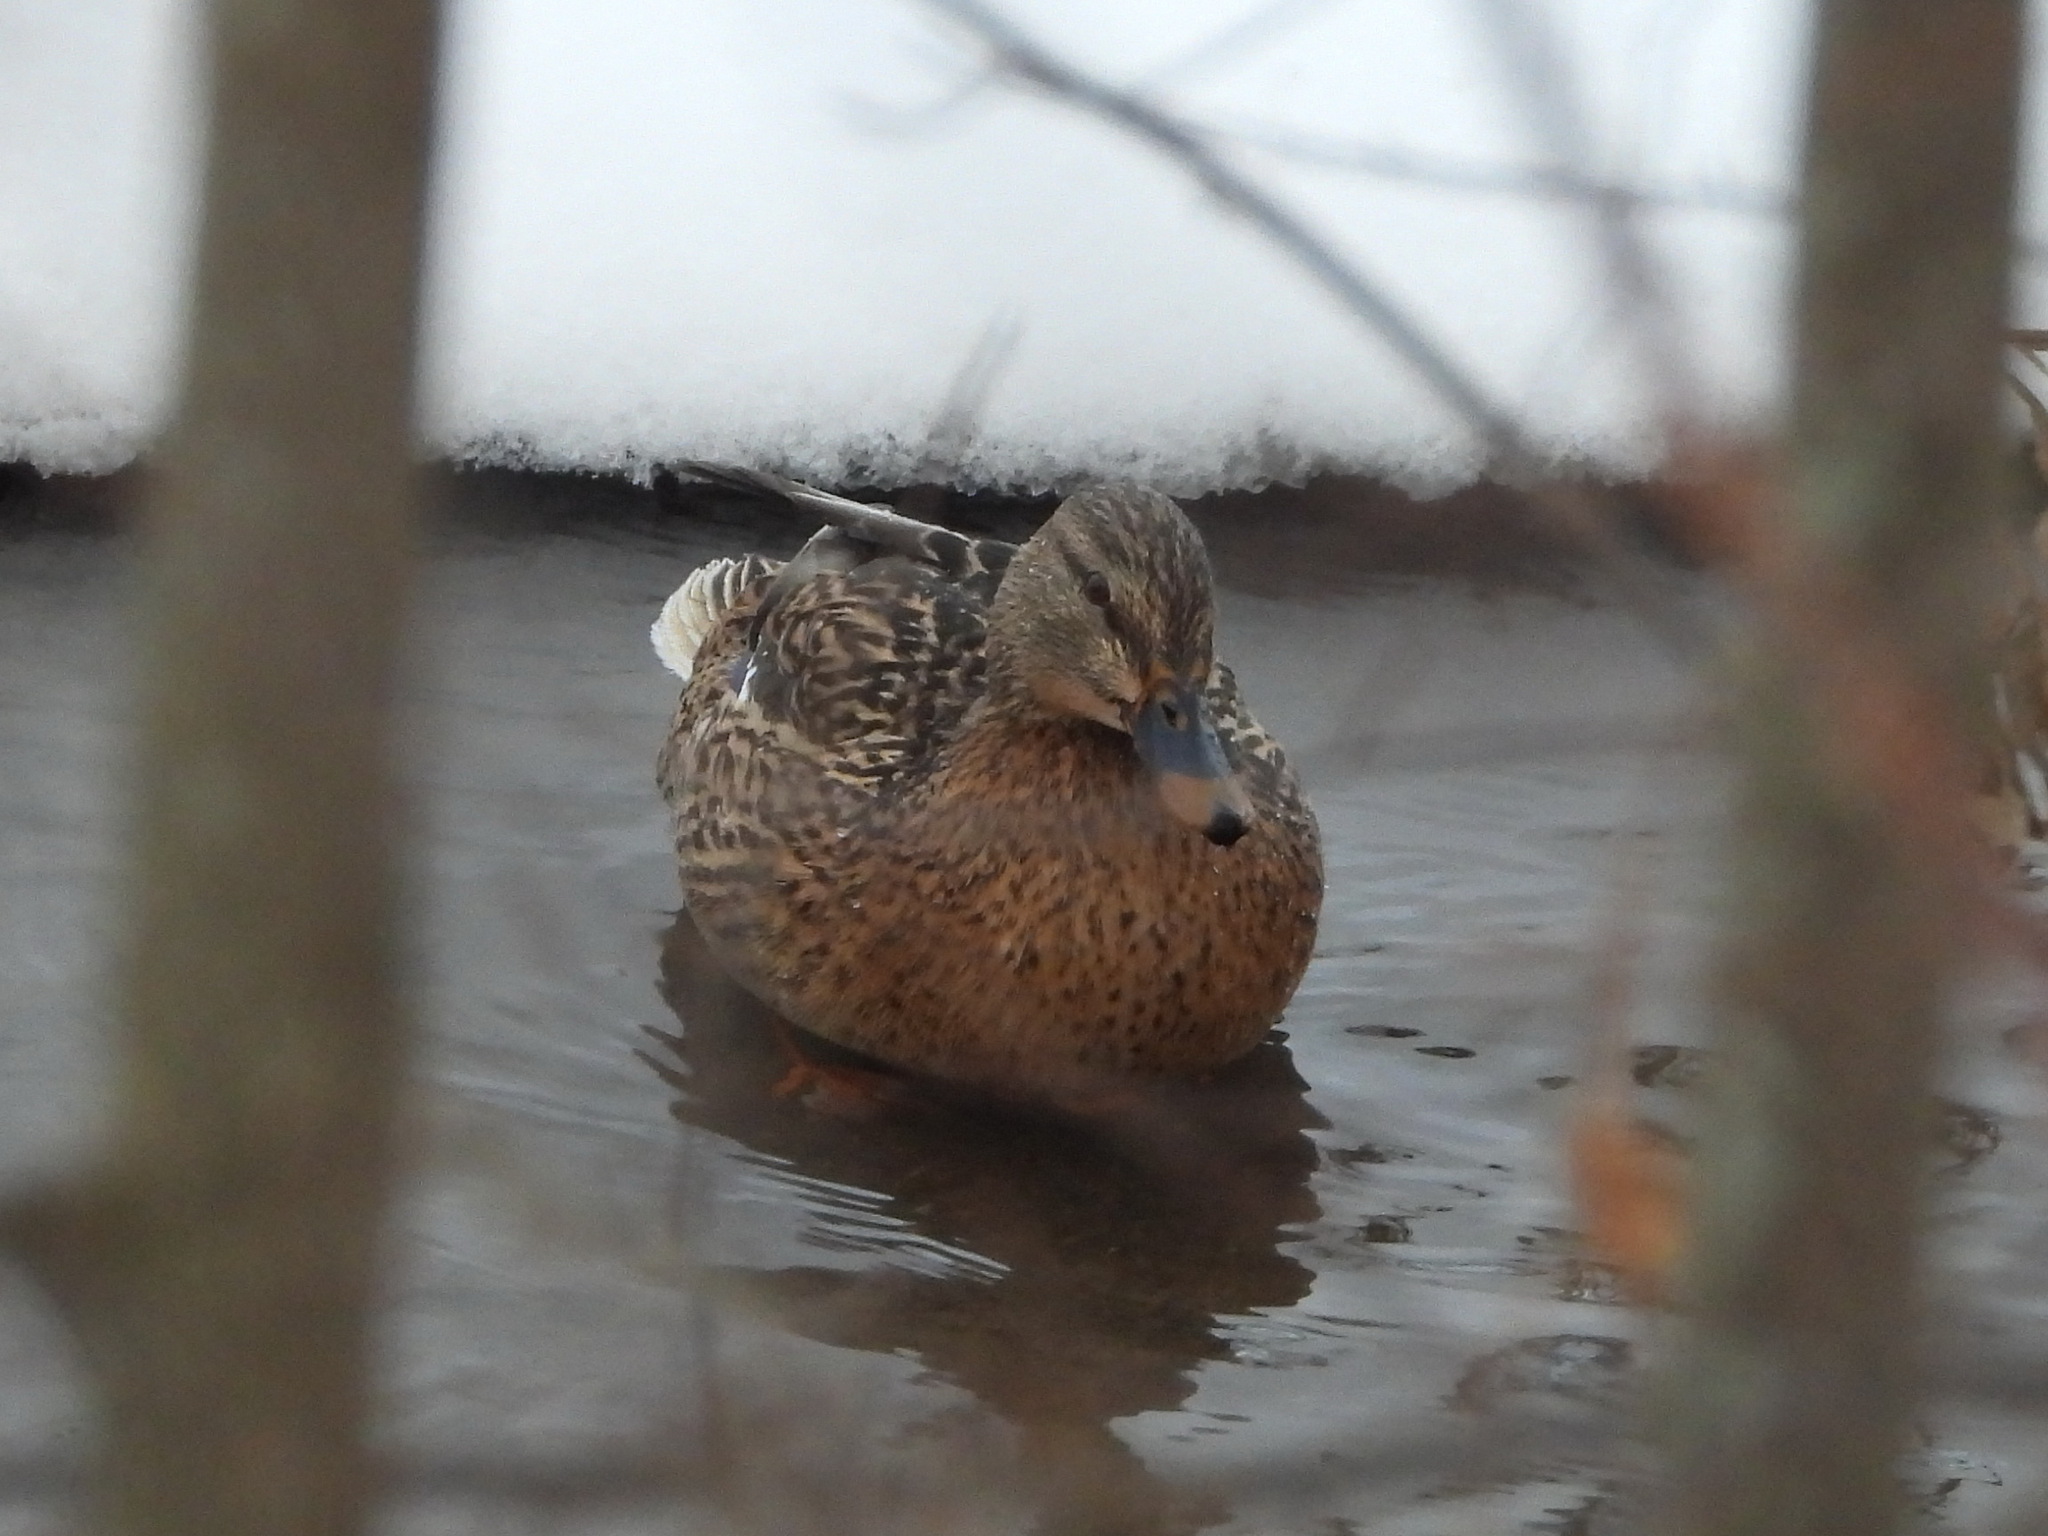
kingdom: Animalia
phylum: Chordata
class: Aves
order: Anseriformes
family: Anatidae
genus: Anas
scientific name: Anas platyrhynchos
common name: Mallard
